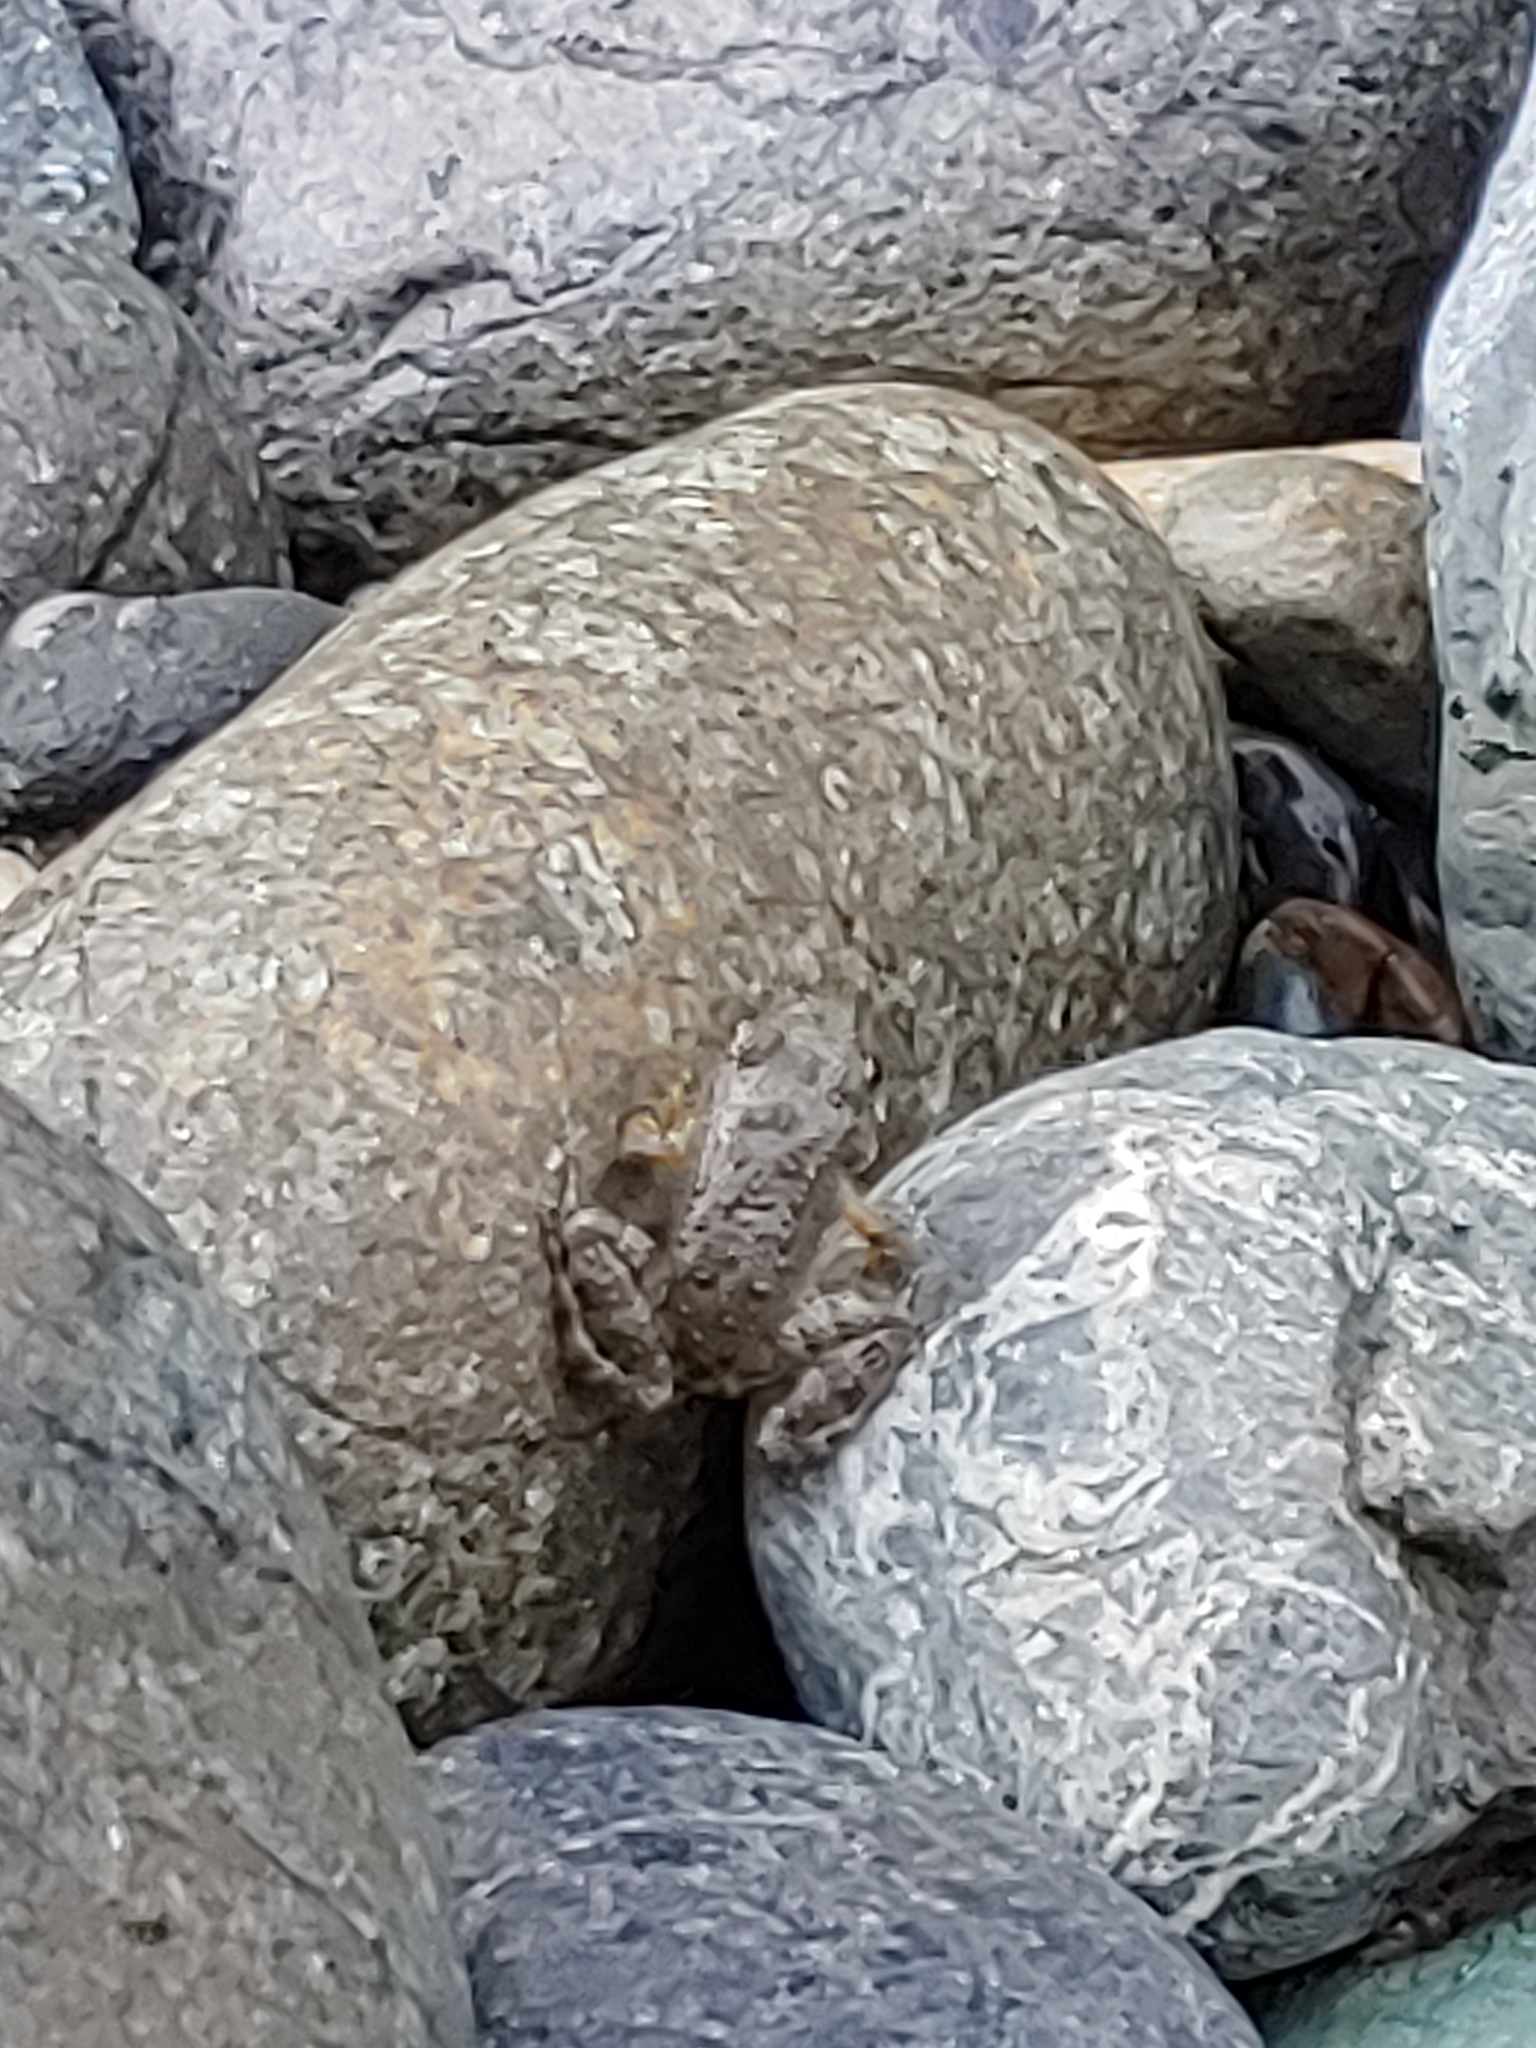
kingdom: Animalia
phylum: Chordata
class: Amphibia
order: Anura
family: Ranidae
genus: Rana
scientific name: Rana boylii
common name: Foothill yellow-legged frog
